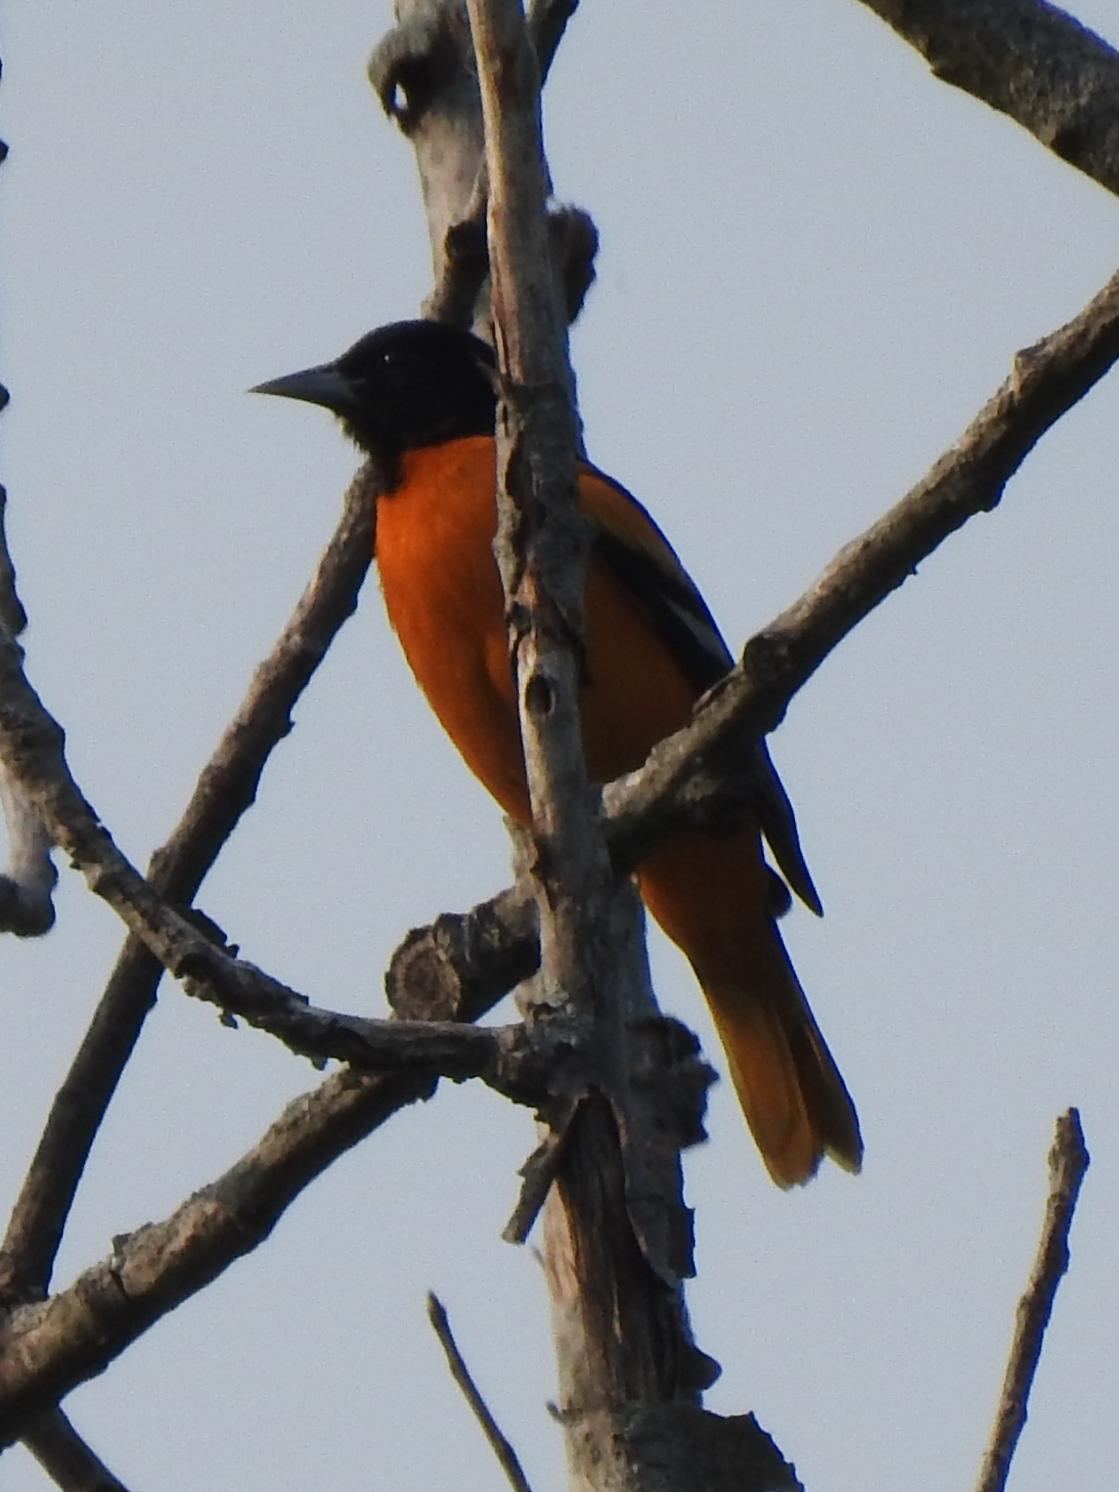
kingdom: Animalia
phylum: Chordata
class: Aves
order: Passeriformes
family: Icteridae
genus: Icterus
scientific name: Icterus galbula
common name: Baltimore oriole
